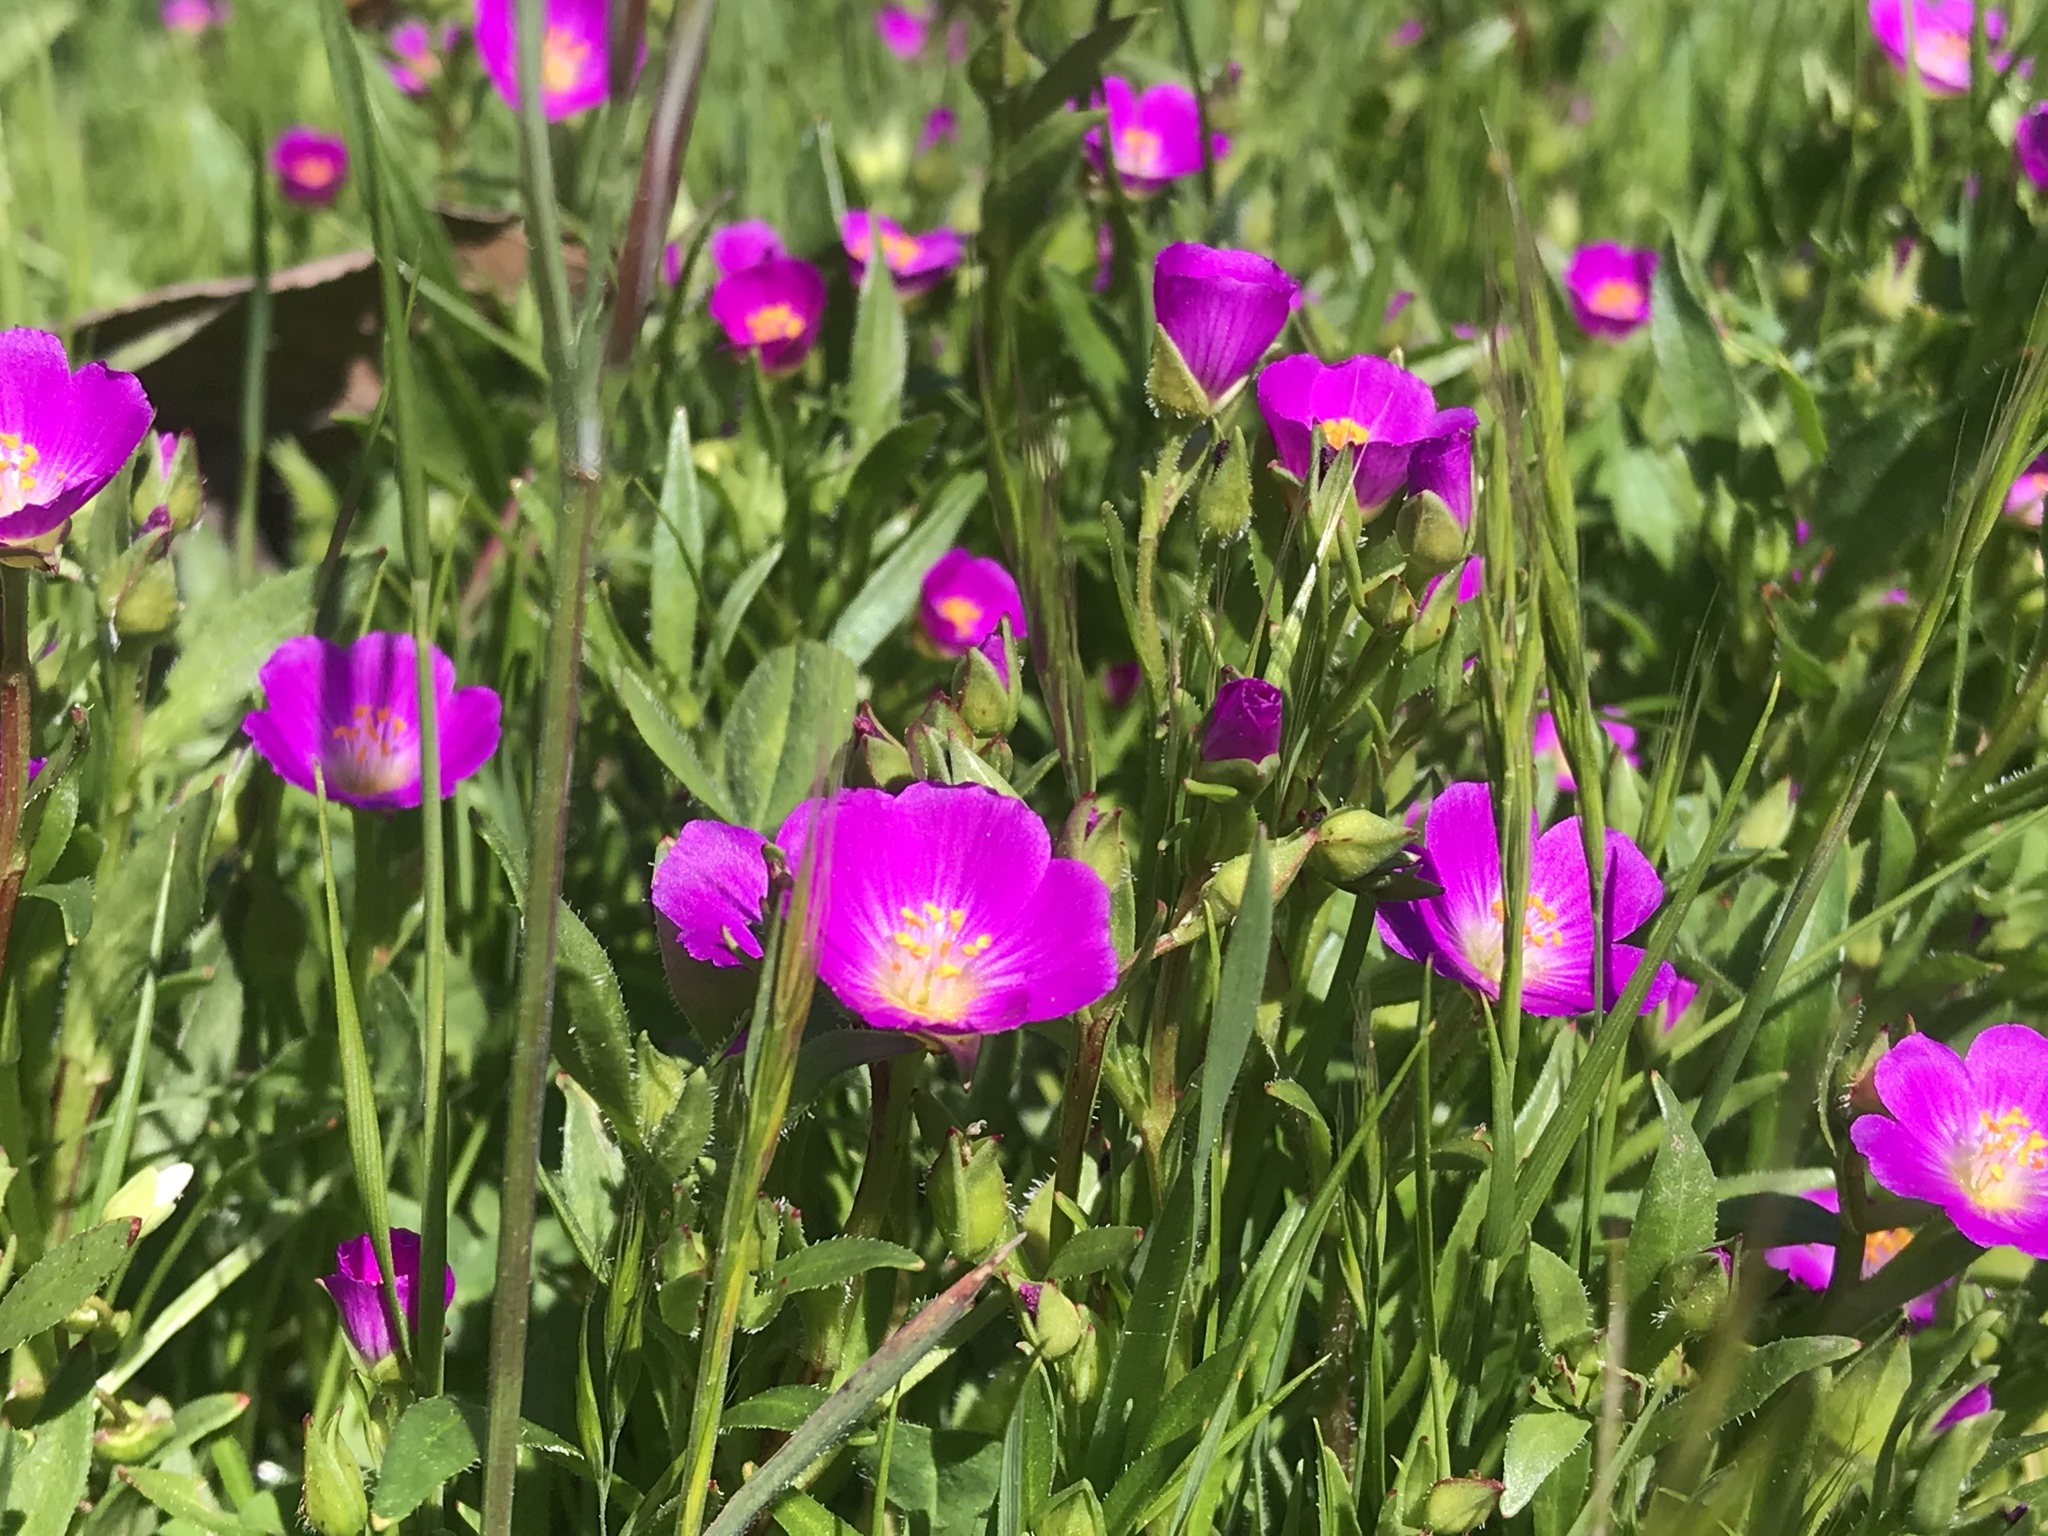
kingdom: Plantae
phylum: Tracheophyta
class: Magnoliopsida
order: Caryophyllales
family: Montiaceae
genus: Calandrinia
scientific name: Calandrinia menziesii
